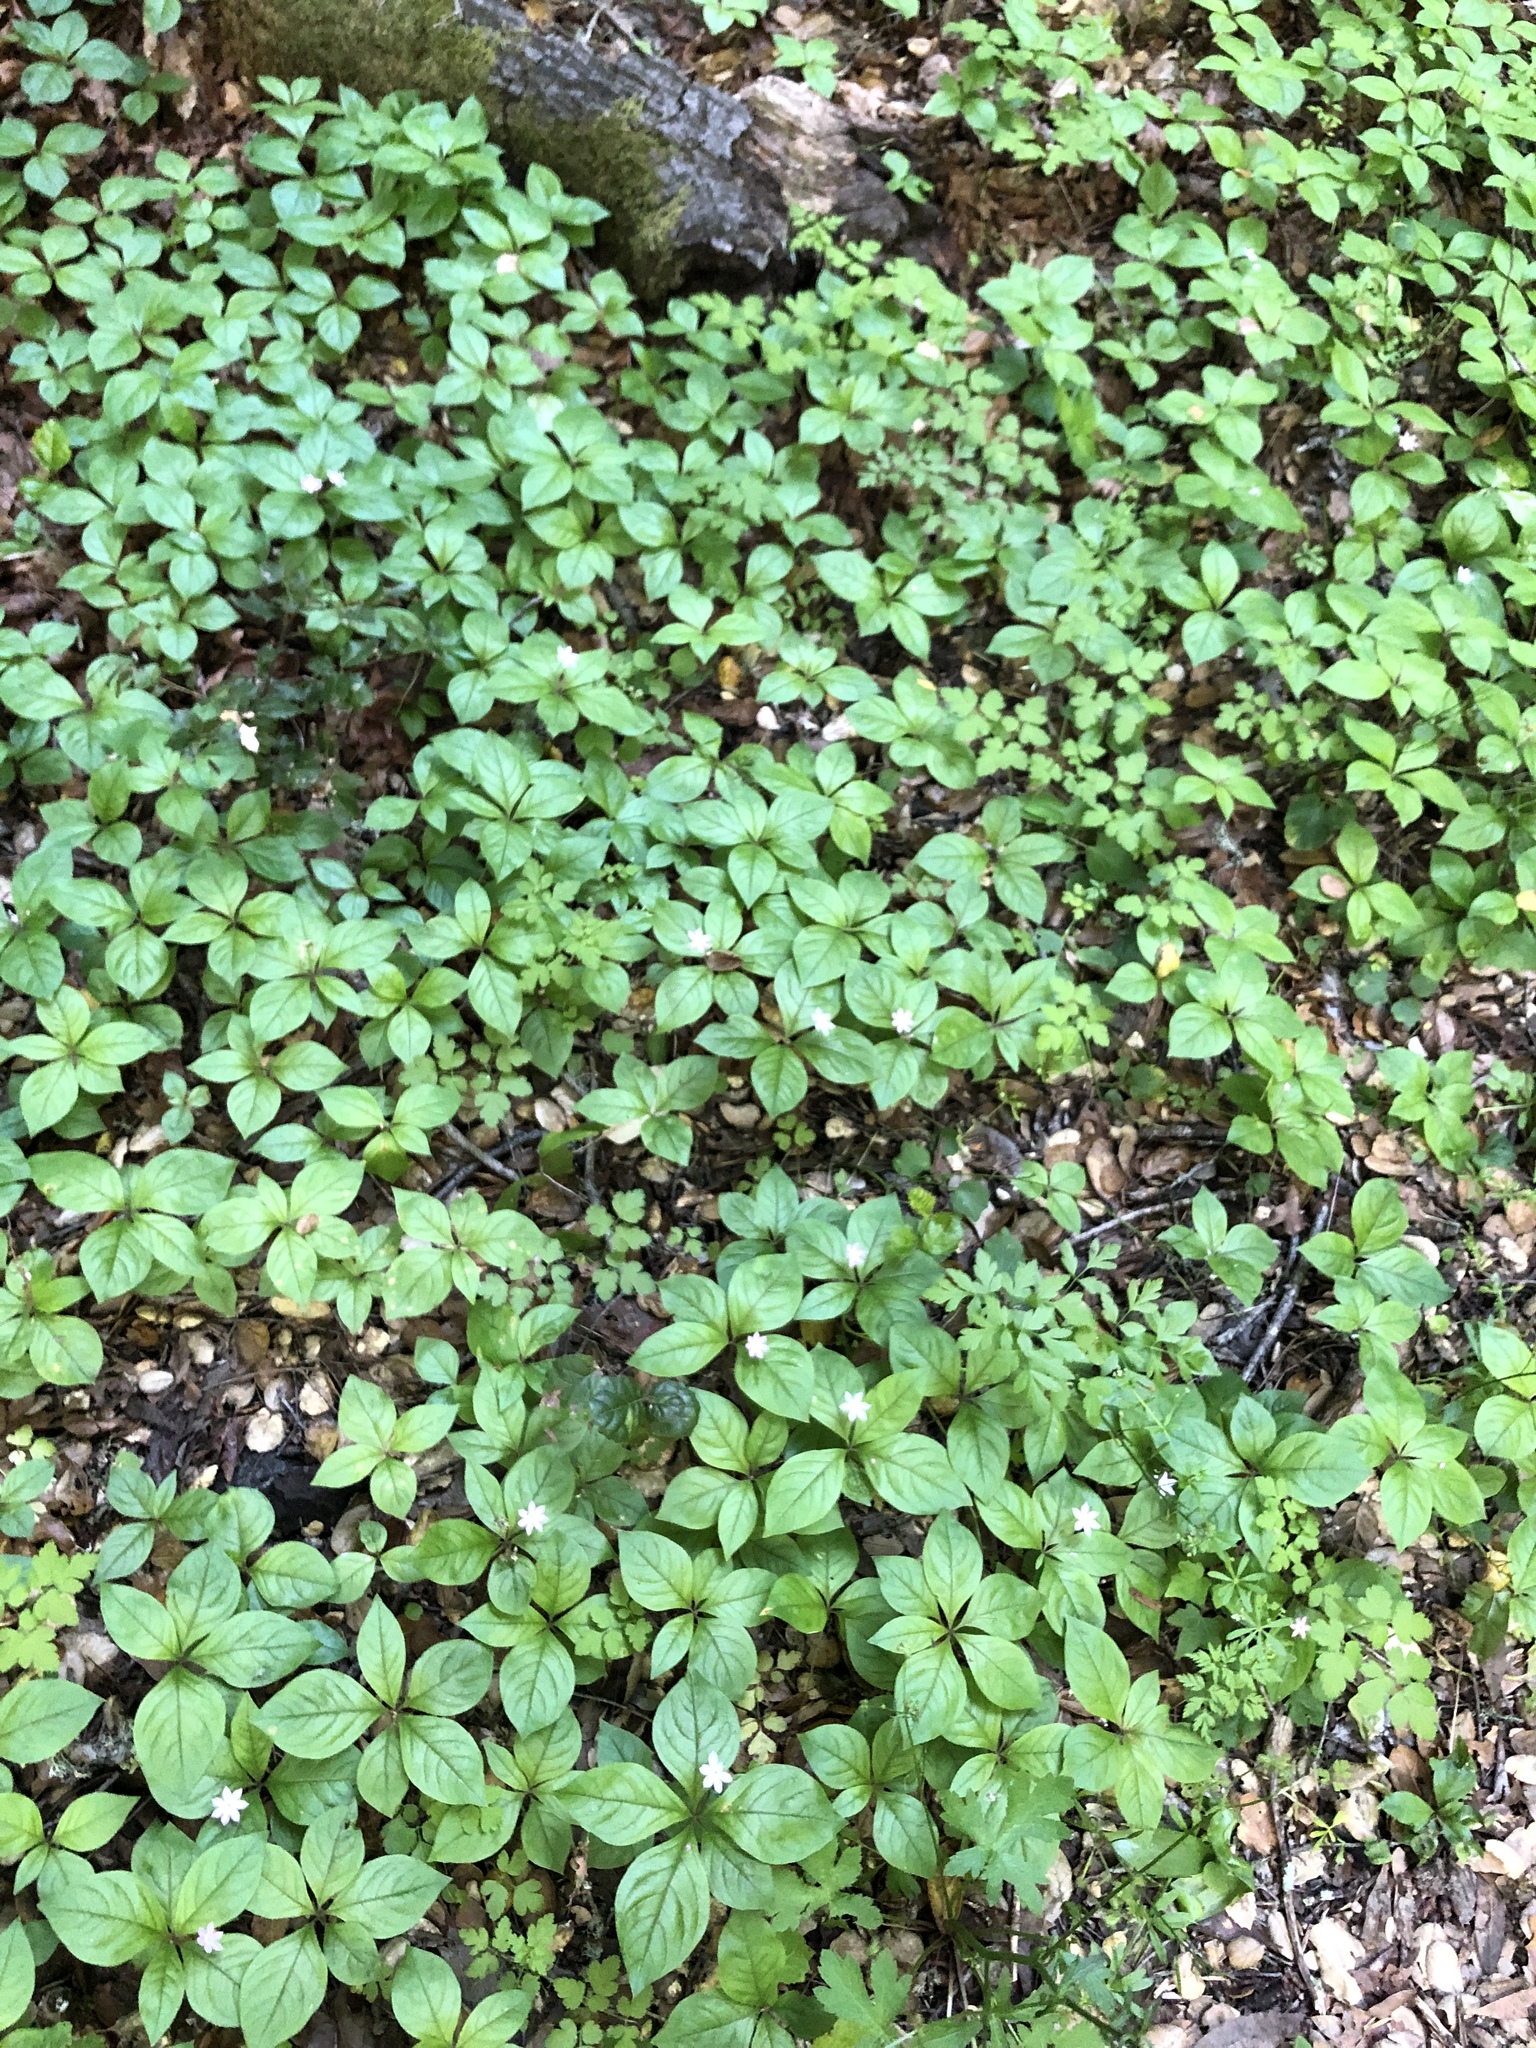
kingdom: Plantae
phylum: Tracheophyta
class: Magnoliopsida
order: Ericales
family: Primulaceae
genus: Lysimachia
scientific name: Lysimachia latifolia
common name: Pacific starflower
